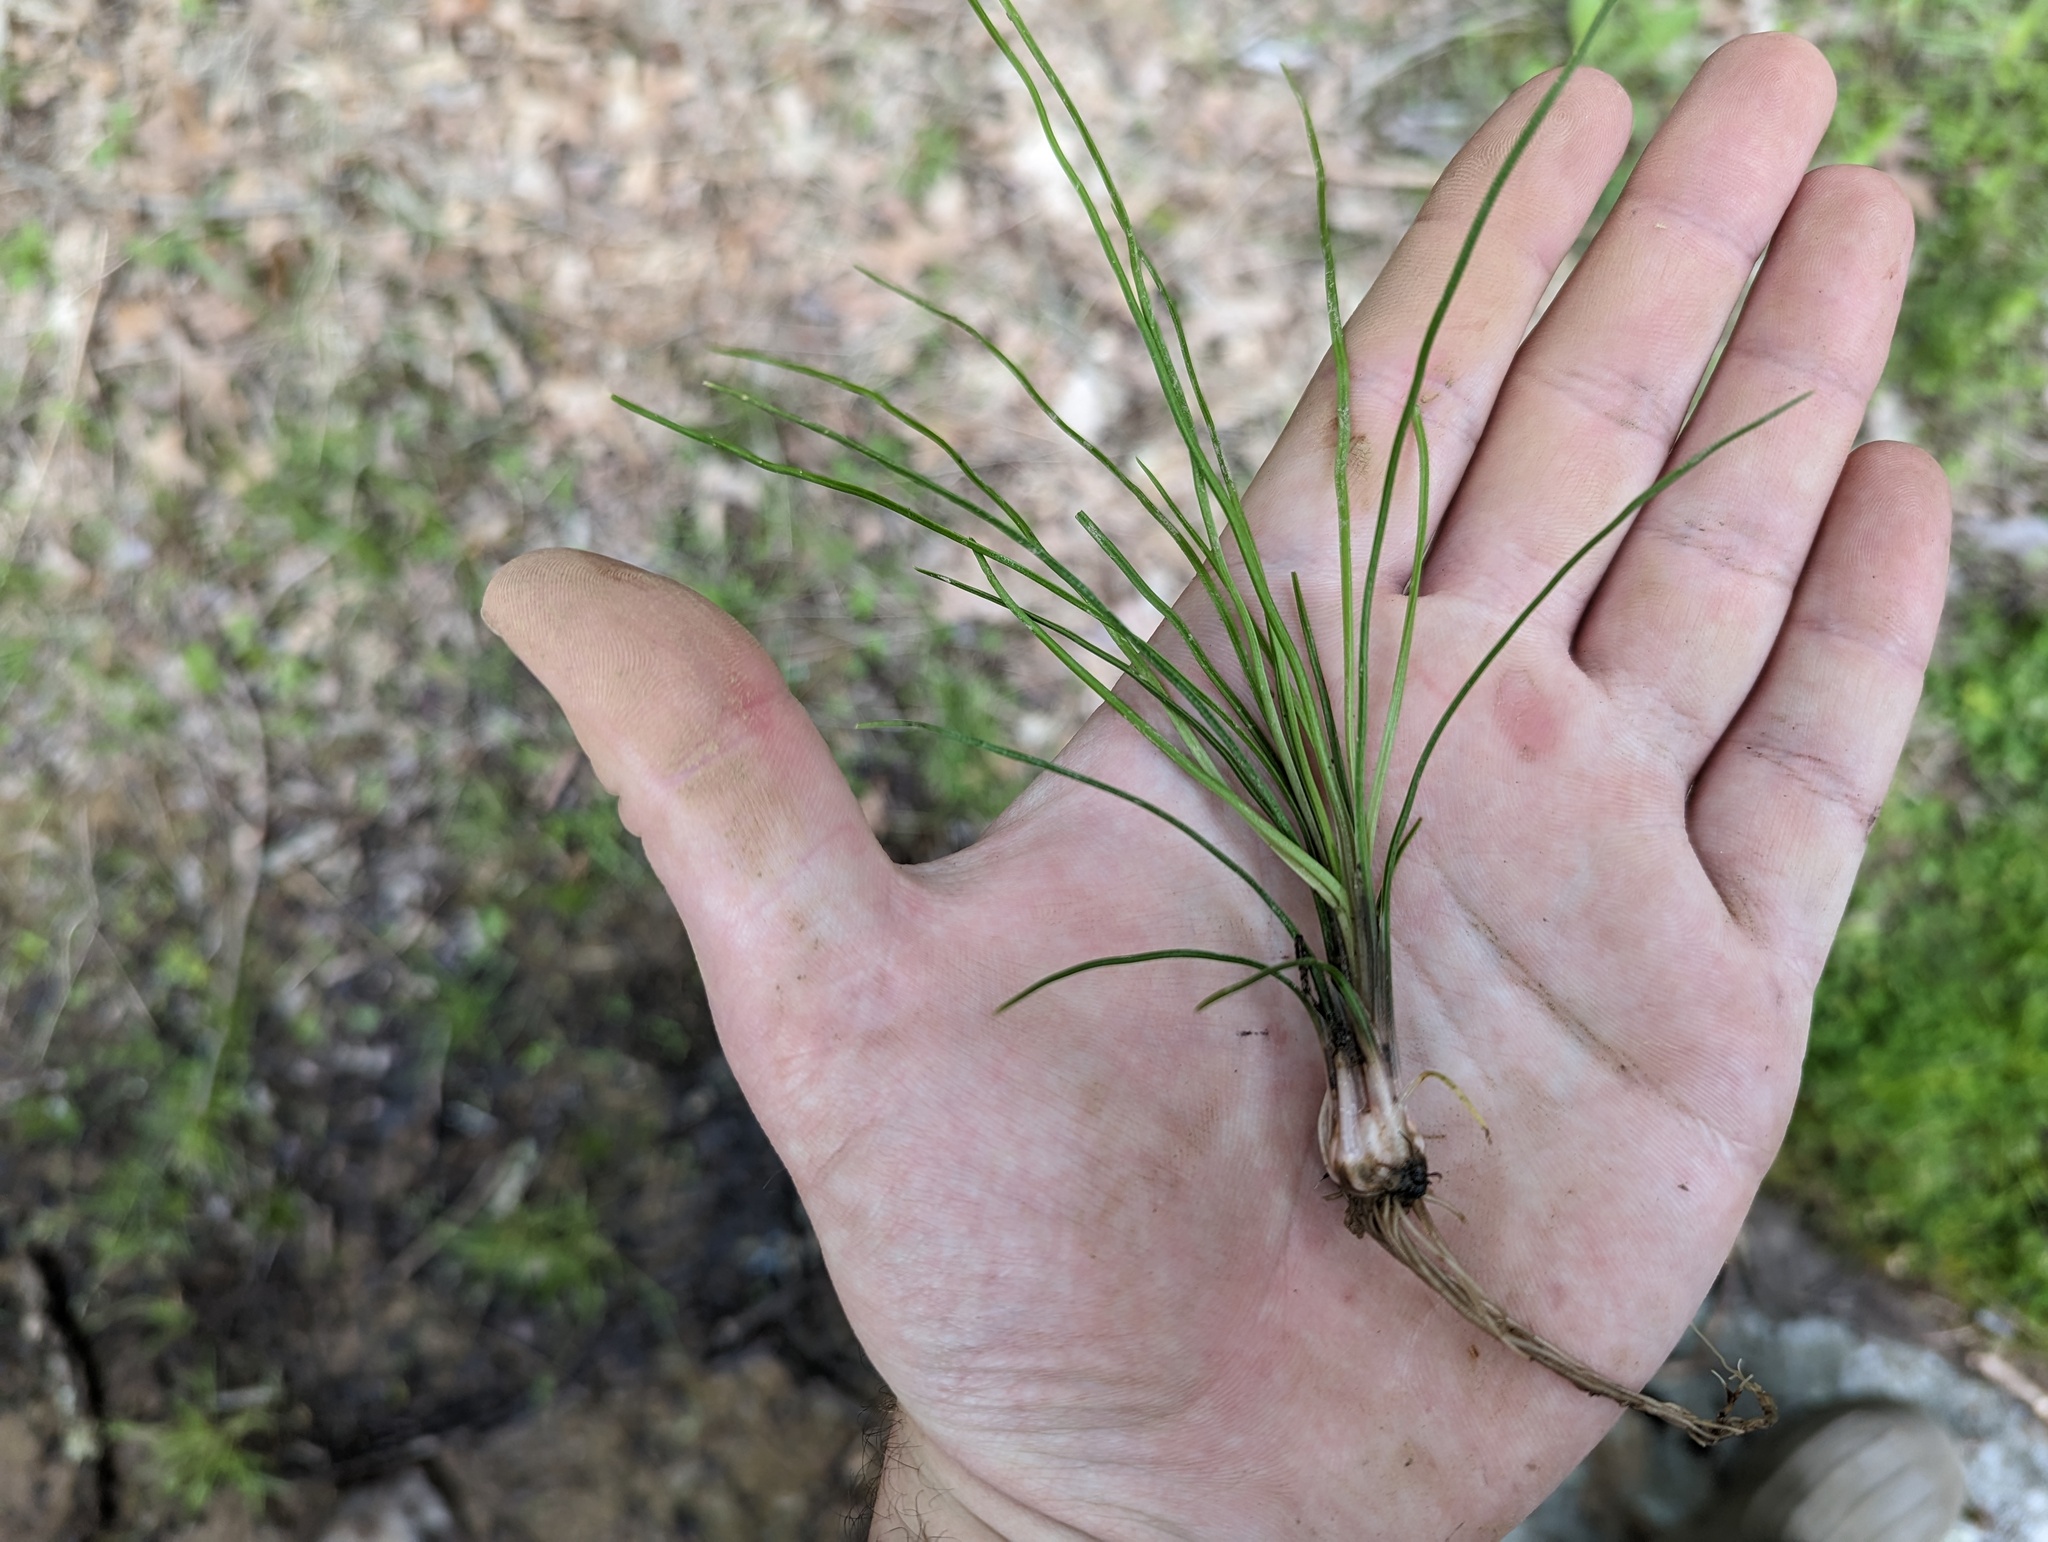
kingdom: Plantae
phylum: Tracheophyta
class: Lycopodiopsida
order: Isoetales
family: Isoetaceae
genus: Isoetes
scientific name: Isoetes melanopoda
